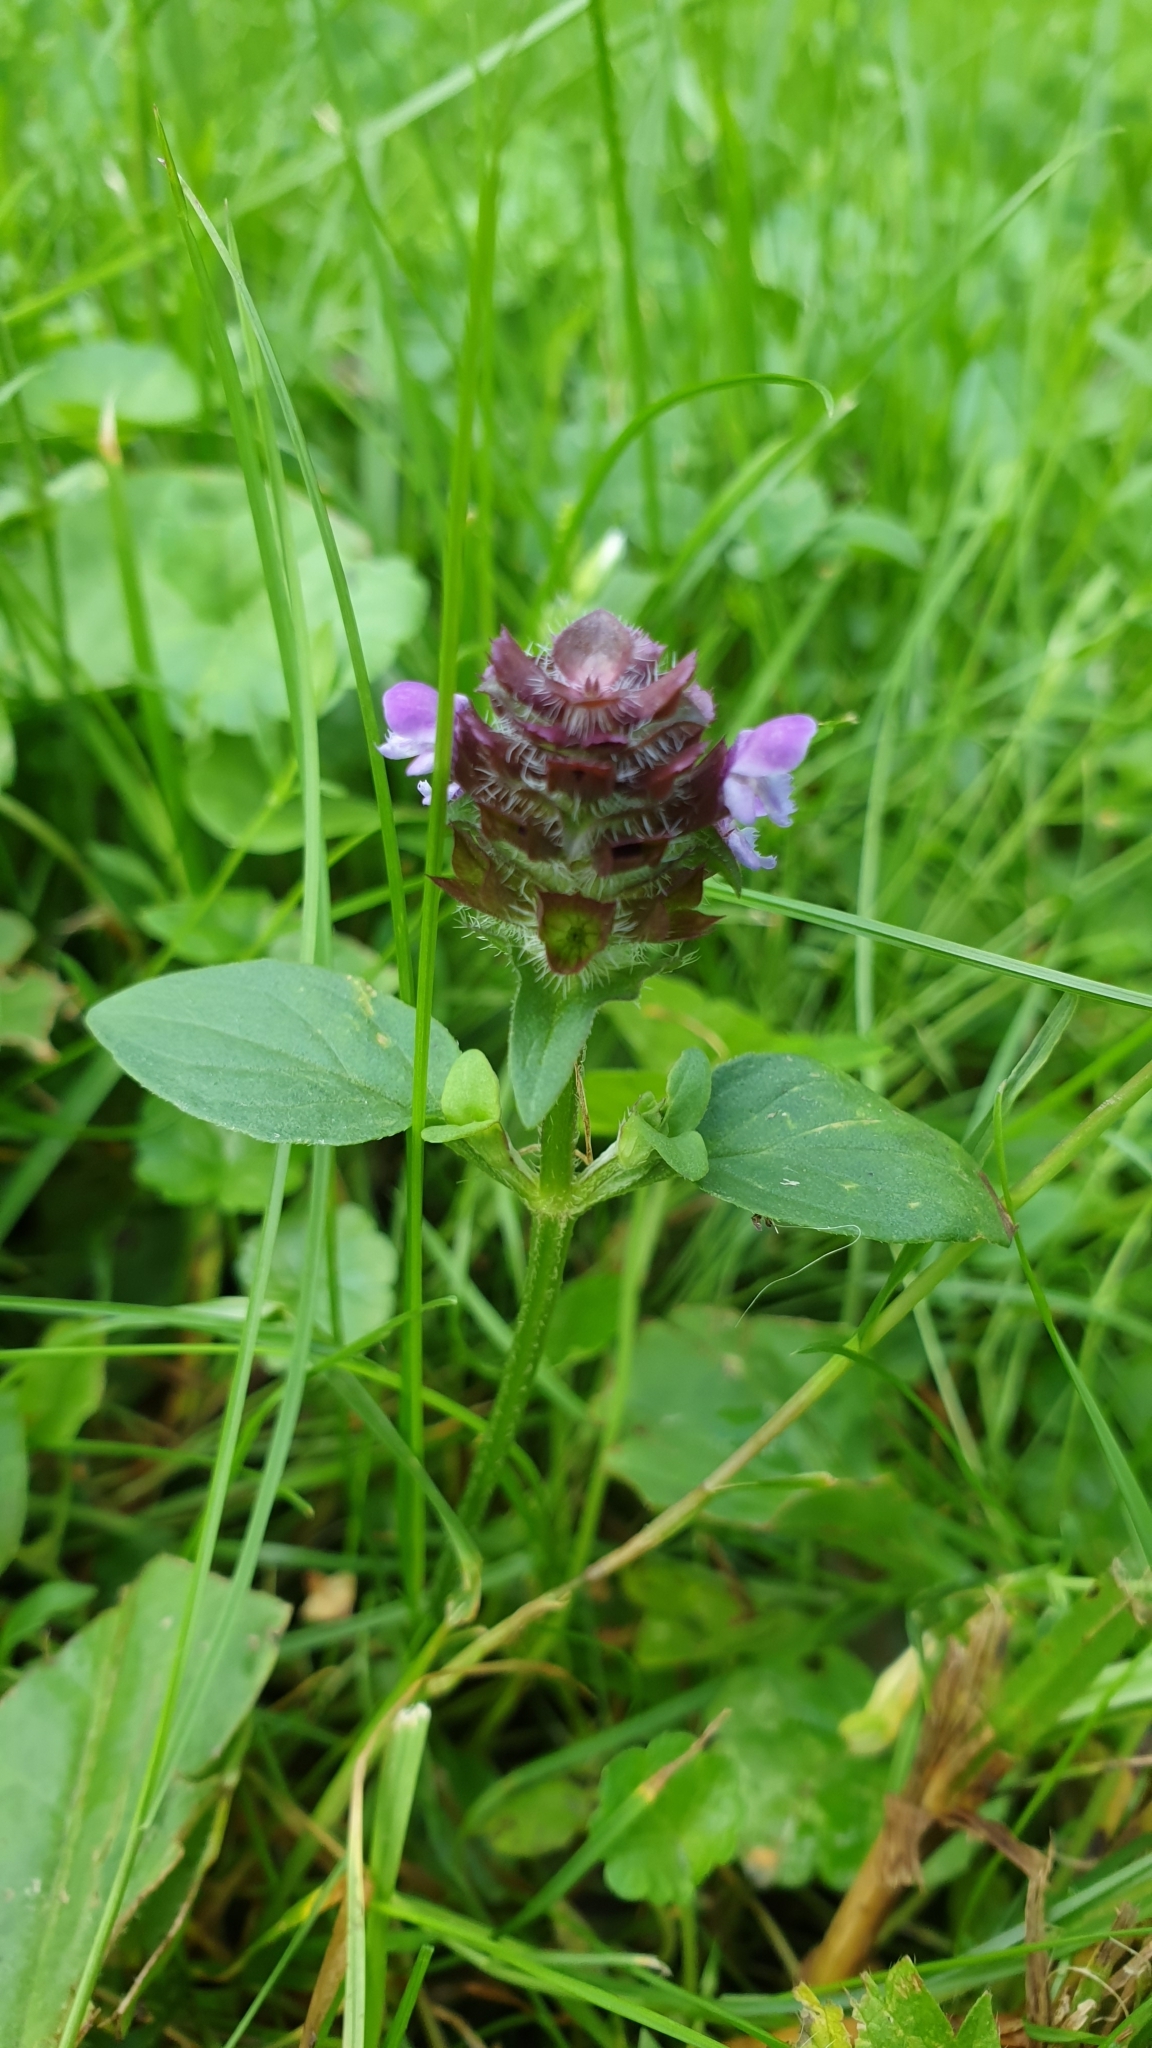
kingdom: Plantae
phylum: Tracheophyta
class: Magnoliopsida
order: Lamiales
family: Lamiaceae
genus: Prunella
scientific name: Prunella vulgaris
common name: Heal-all
